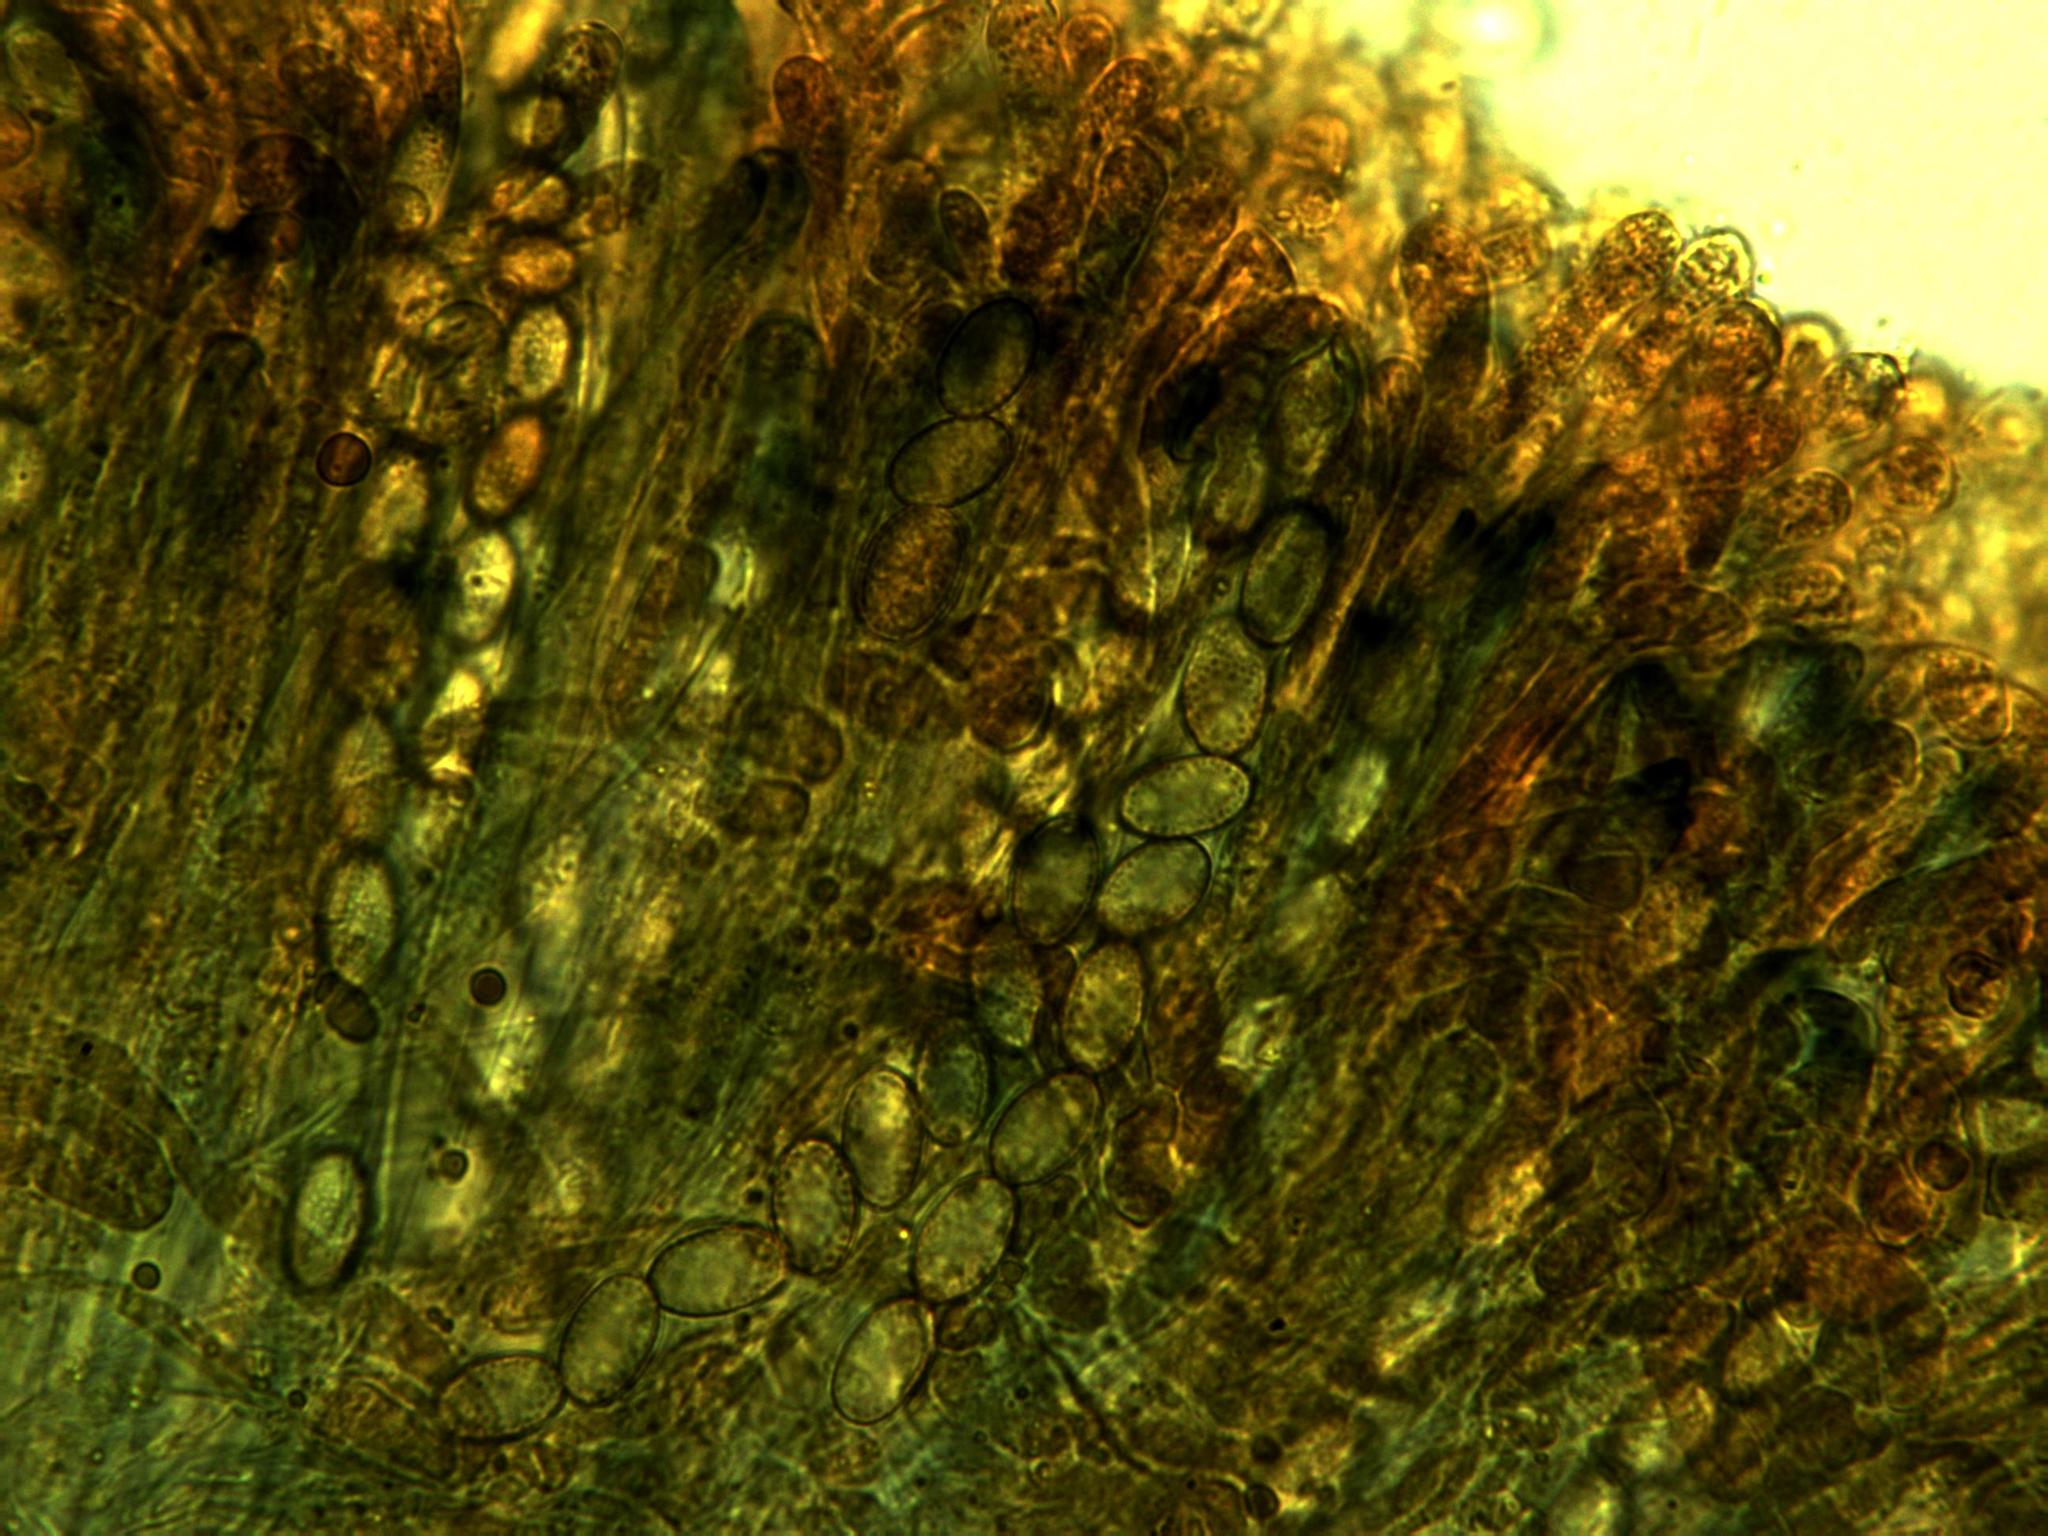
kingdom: Fungi
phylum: Ascomycota
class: Pezizomycetes
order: Pezizales
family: Pezizaceae
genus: Geoscypha
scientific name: Geoscypha tenacella
